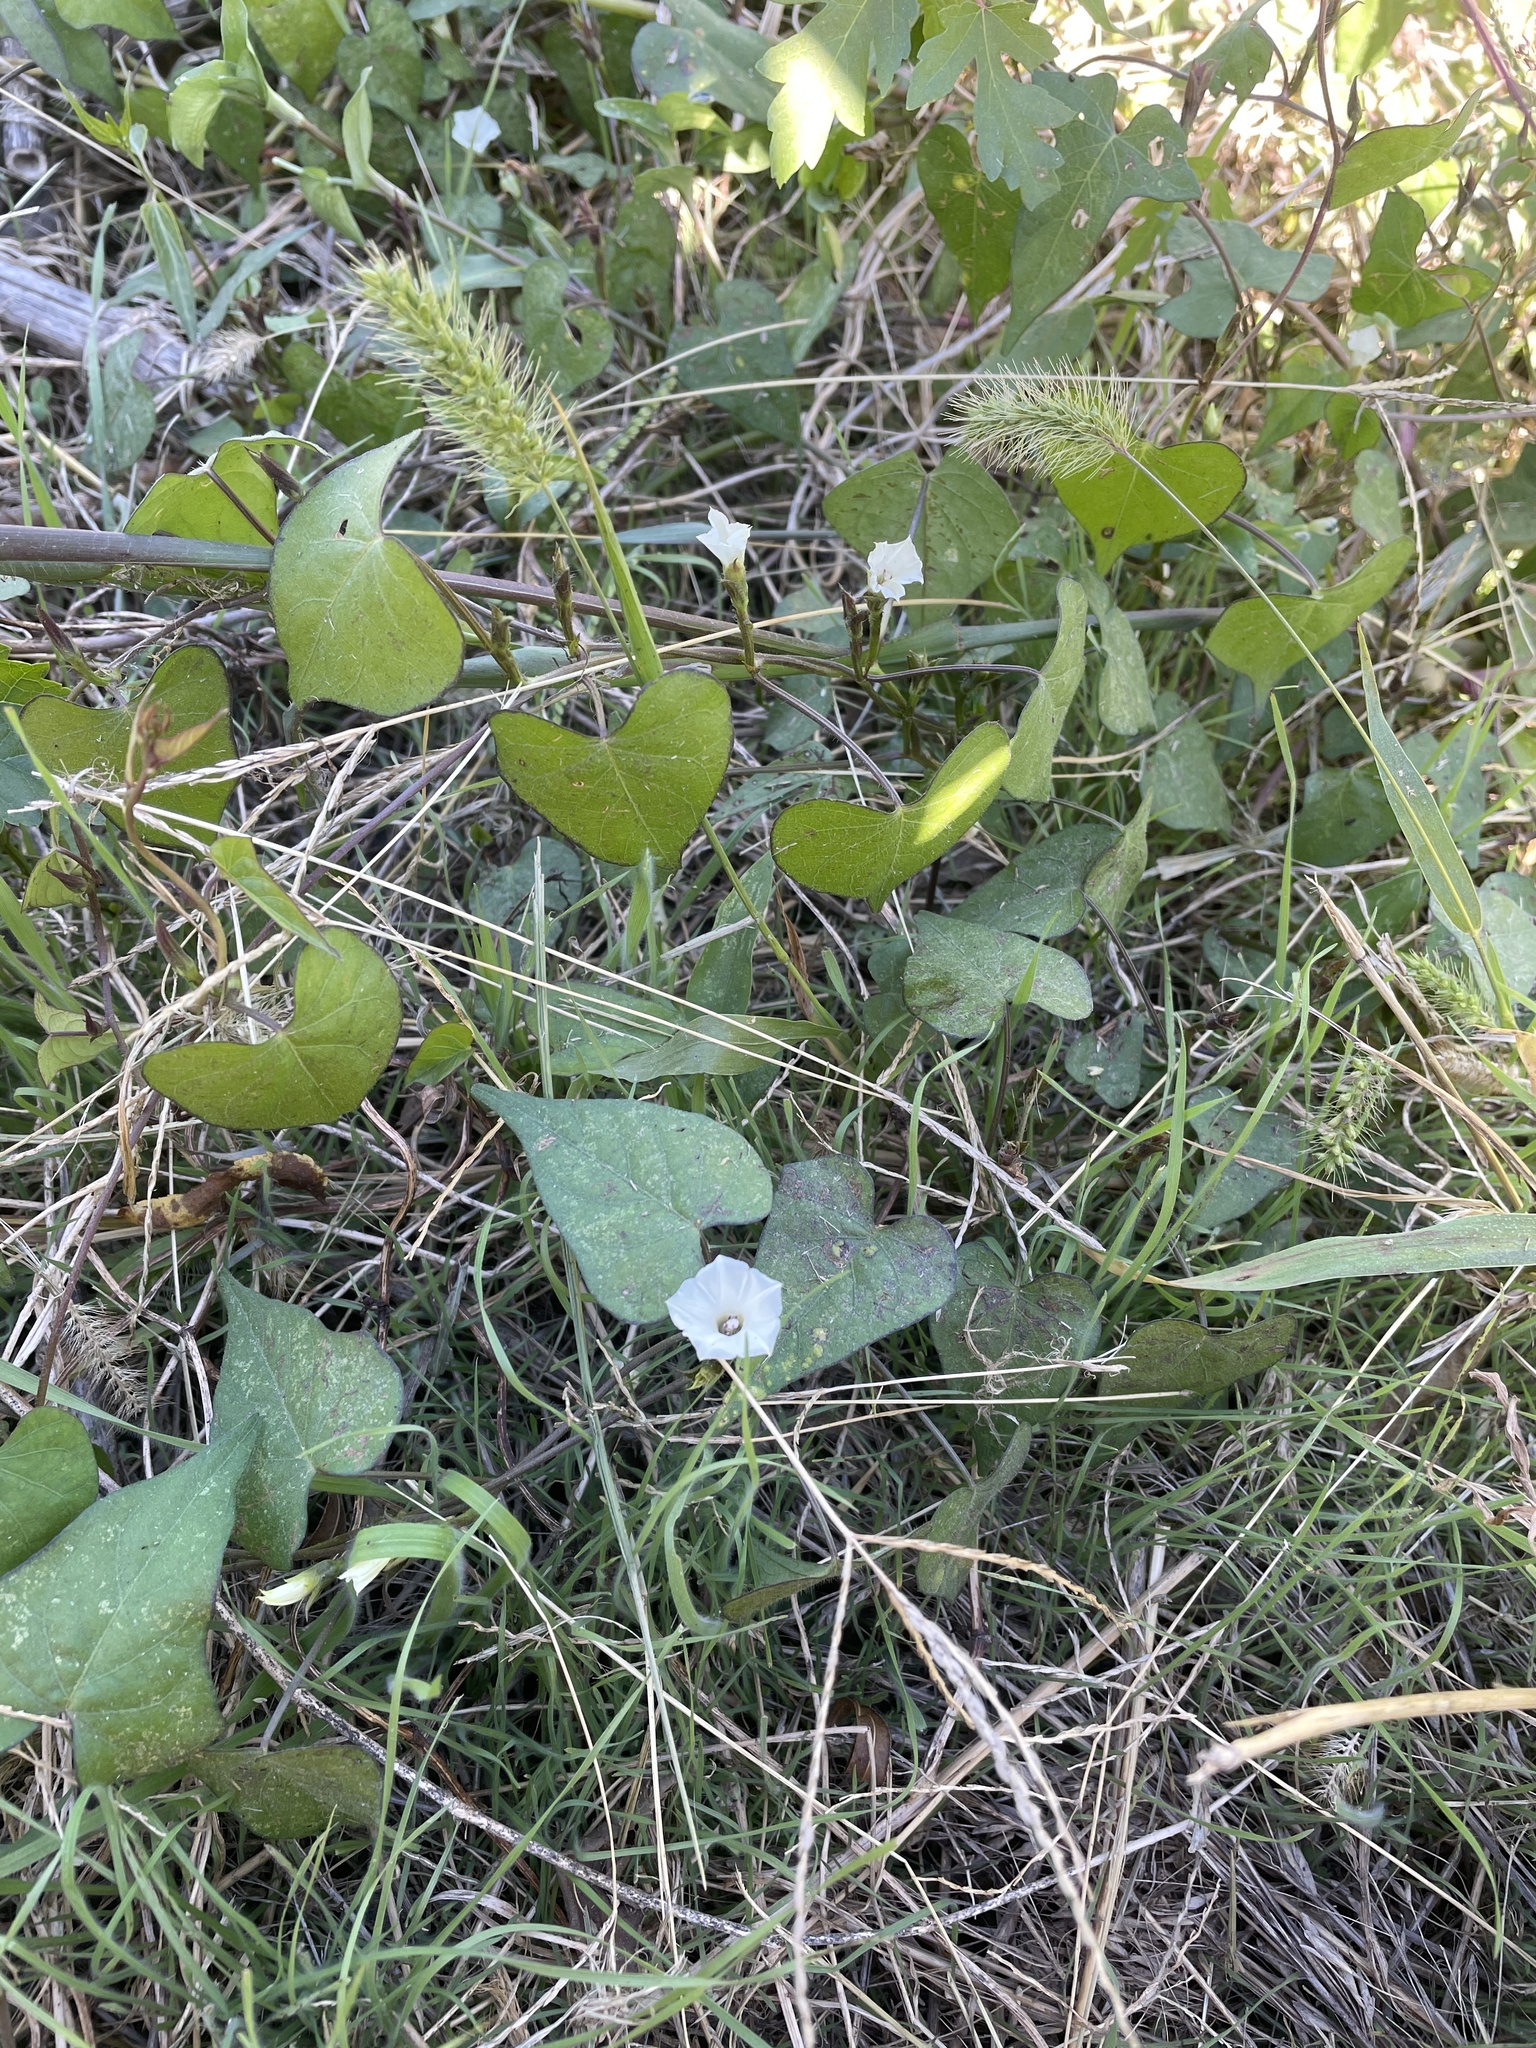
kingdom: Plantae
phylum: Tracheophyta
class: Magnoliopsida
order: Solanales
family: Convolvulaceae
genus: Ipomoea
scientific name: Ipomoea lacunosa
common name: White morning-glory
